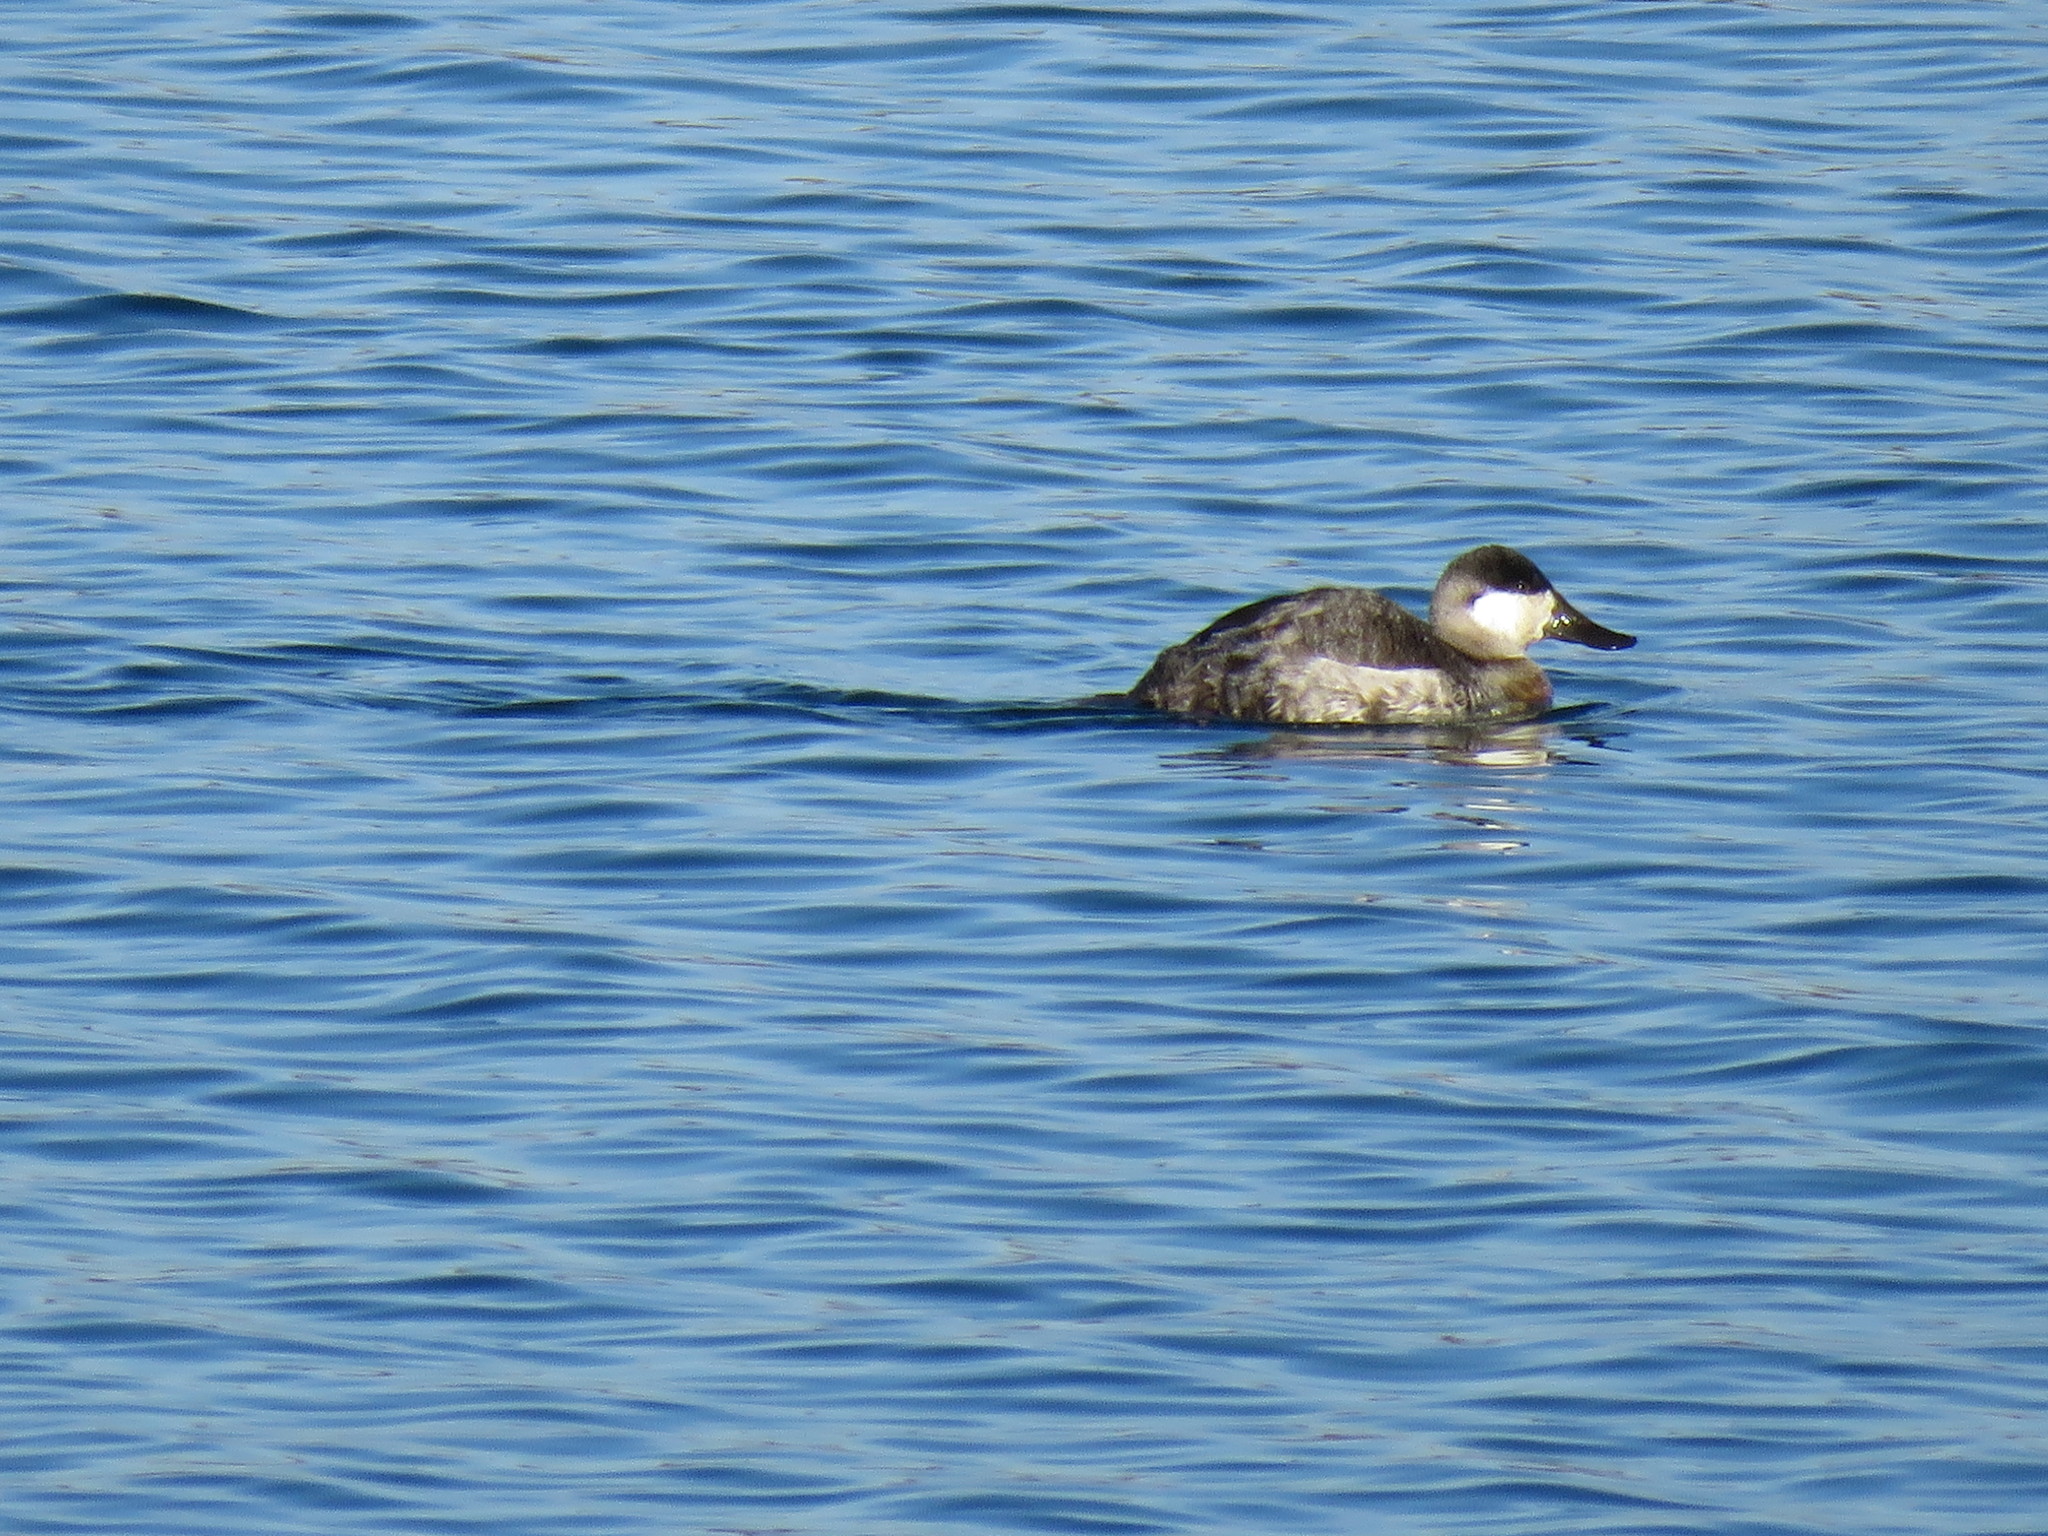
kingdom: Animalia
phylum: Chordata
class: Aves
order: Anseriformes
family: Anatidae
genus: Oxyura
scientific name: Oxyura jamaicensis
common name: Ruddy duck
